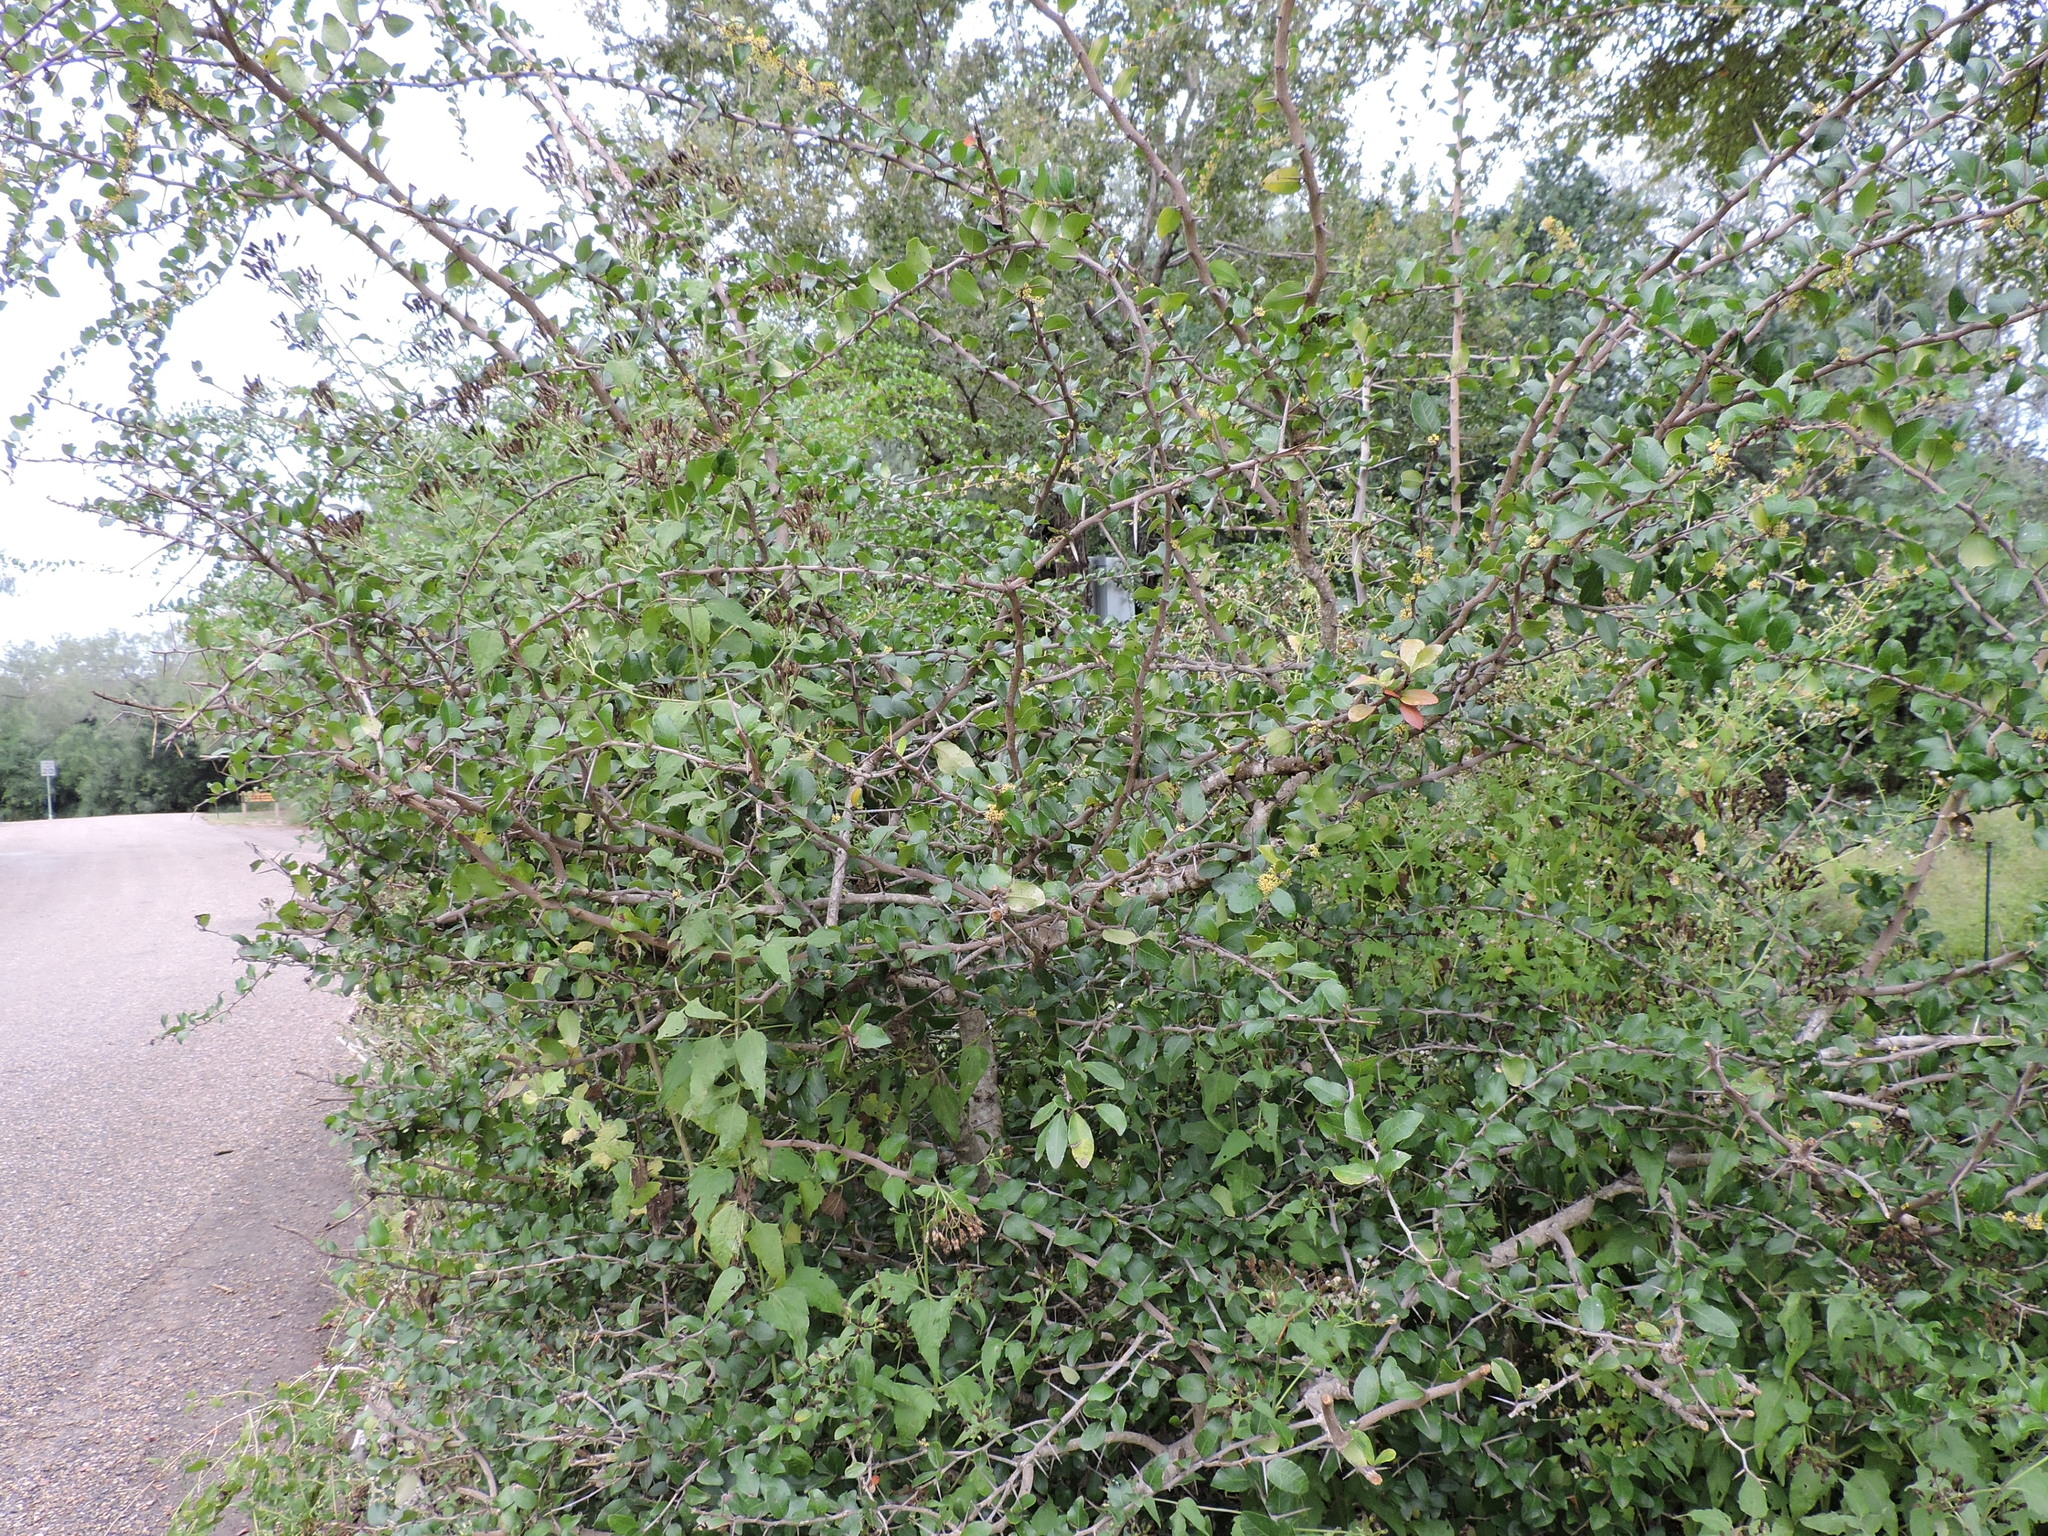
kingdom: Plantae
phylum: Tracheophyta
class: Magnoliopsida
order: Malpighiales
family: Salicaceae
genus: Xylosma
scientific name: Xylosma flexuosa
